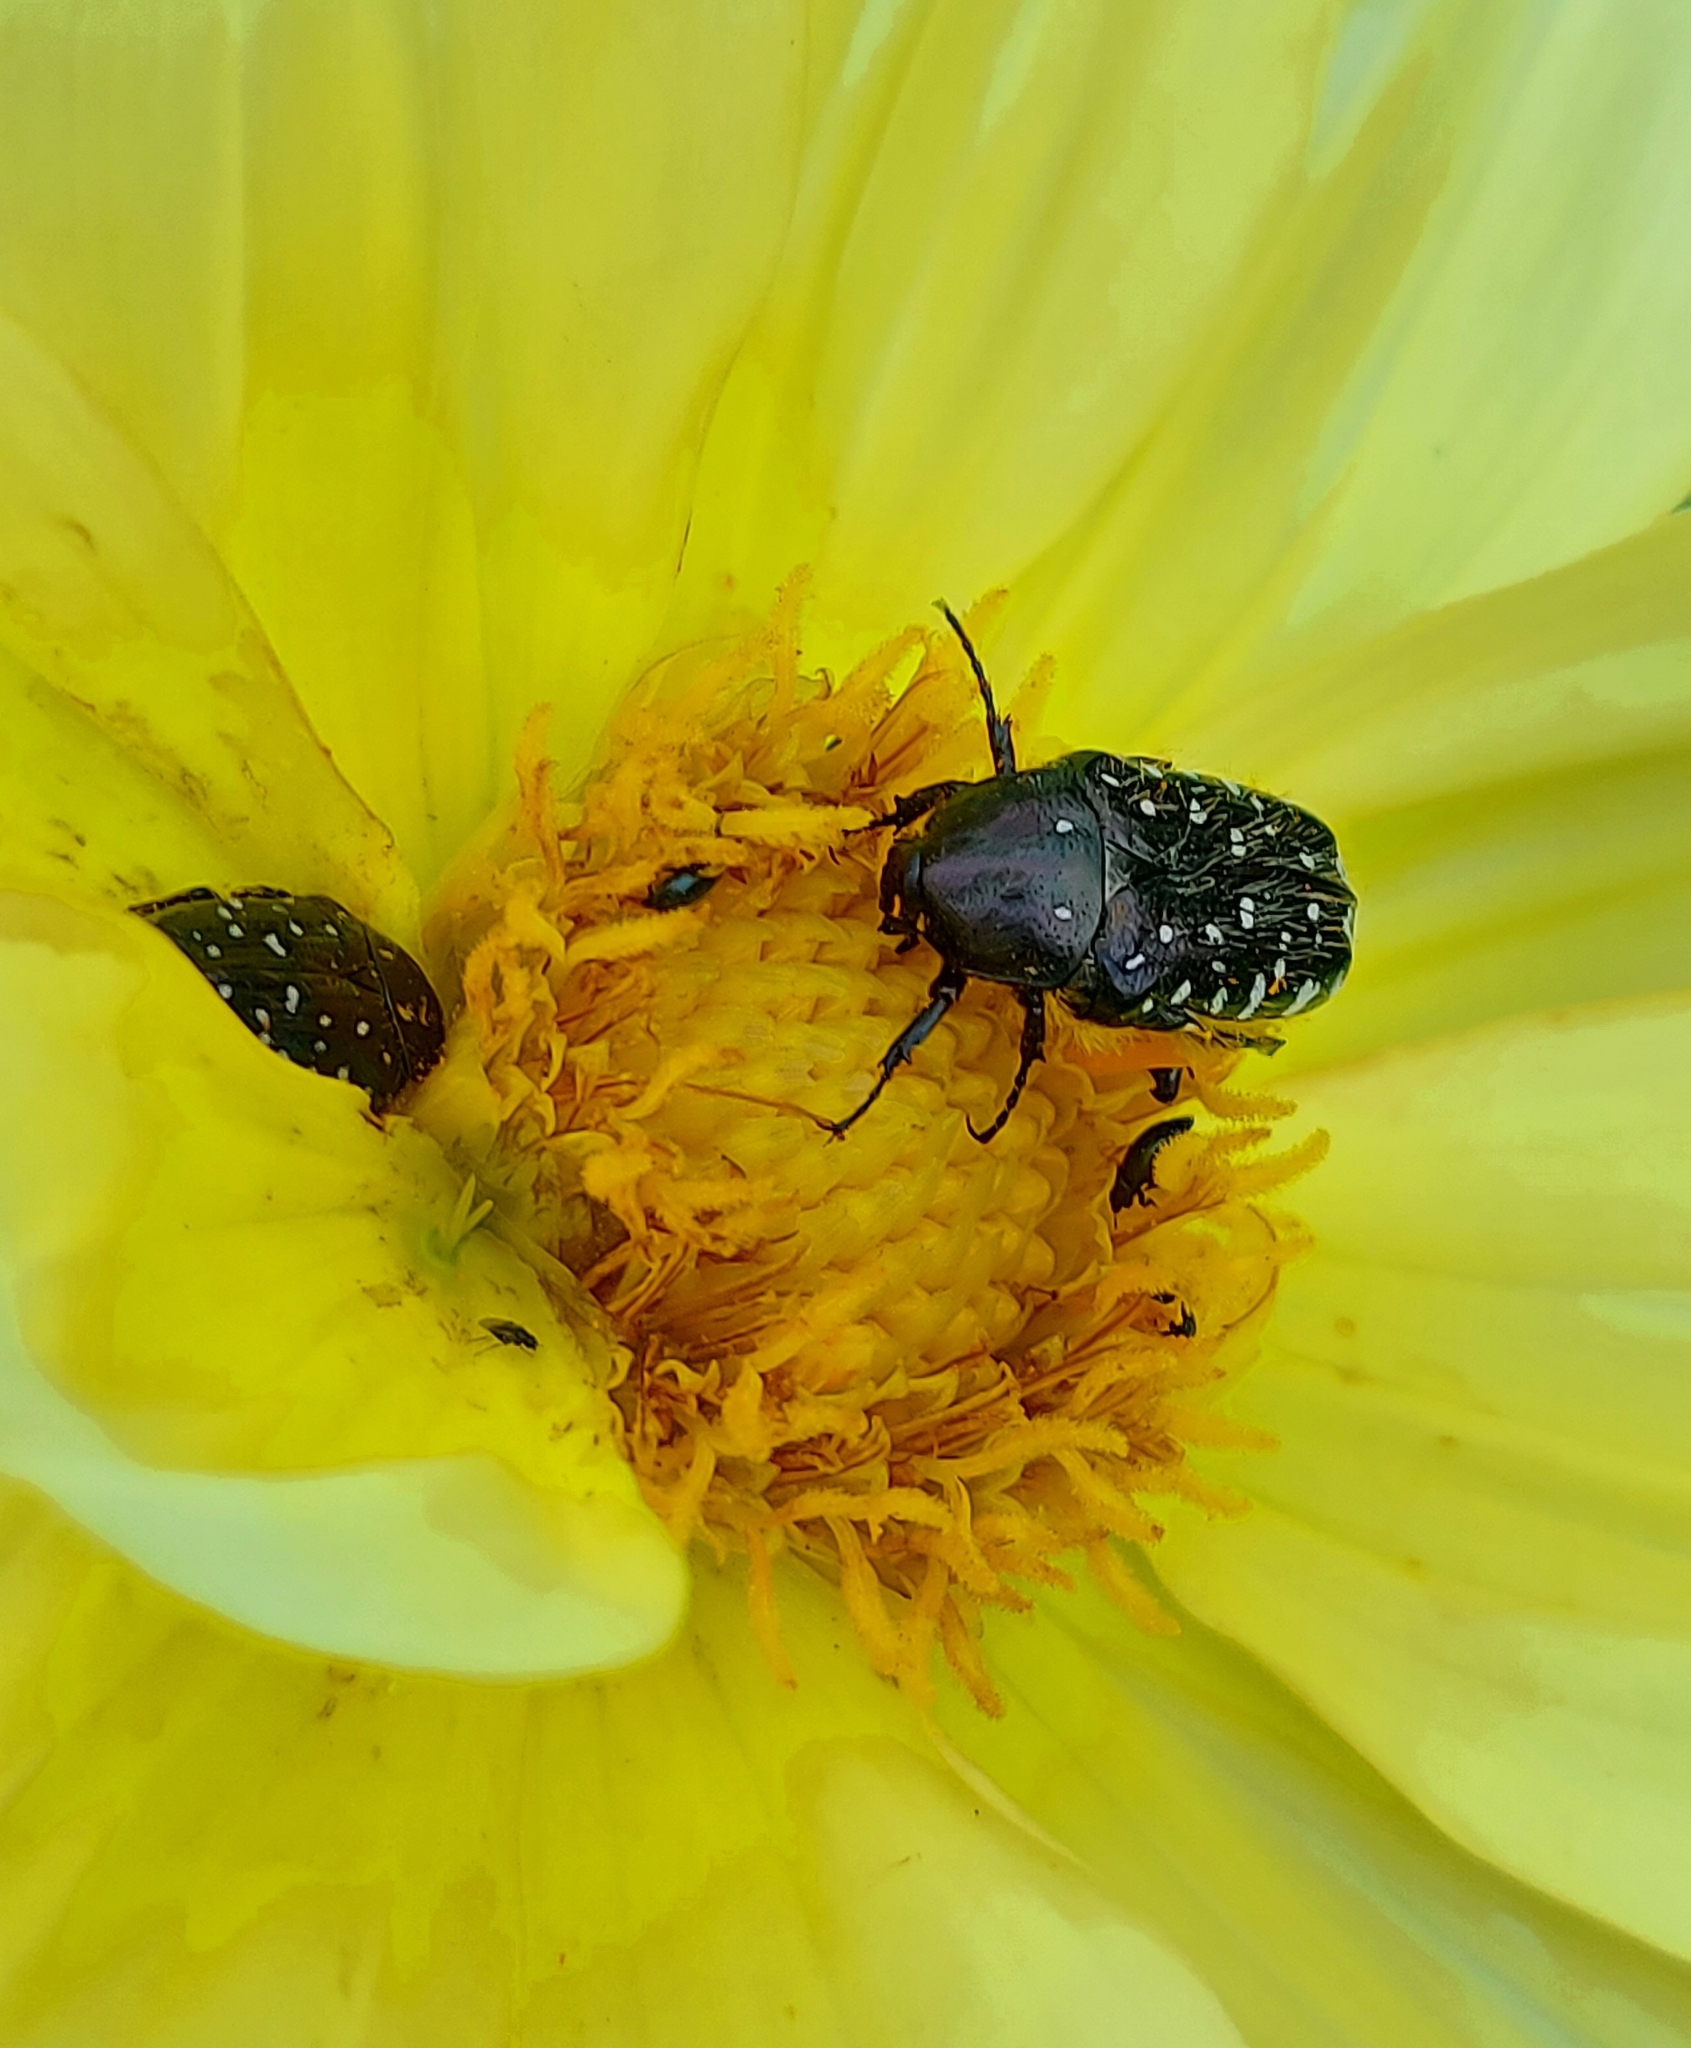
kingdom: Animalia
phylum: Arthropoda
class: Insecta
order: Coleoptera
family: Scarabaeidae
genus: Oxythyrea
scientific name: Oxythyrea funesta
